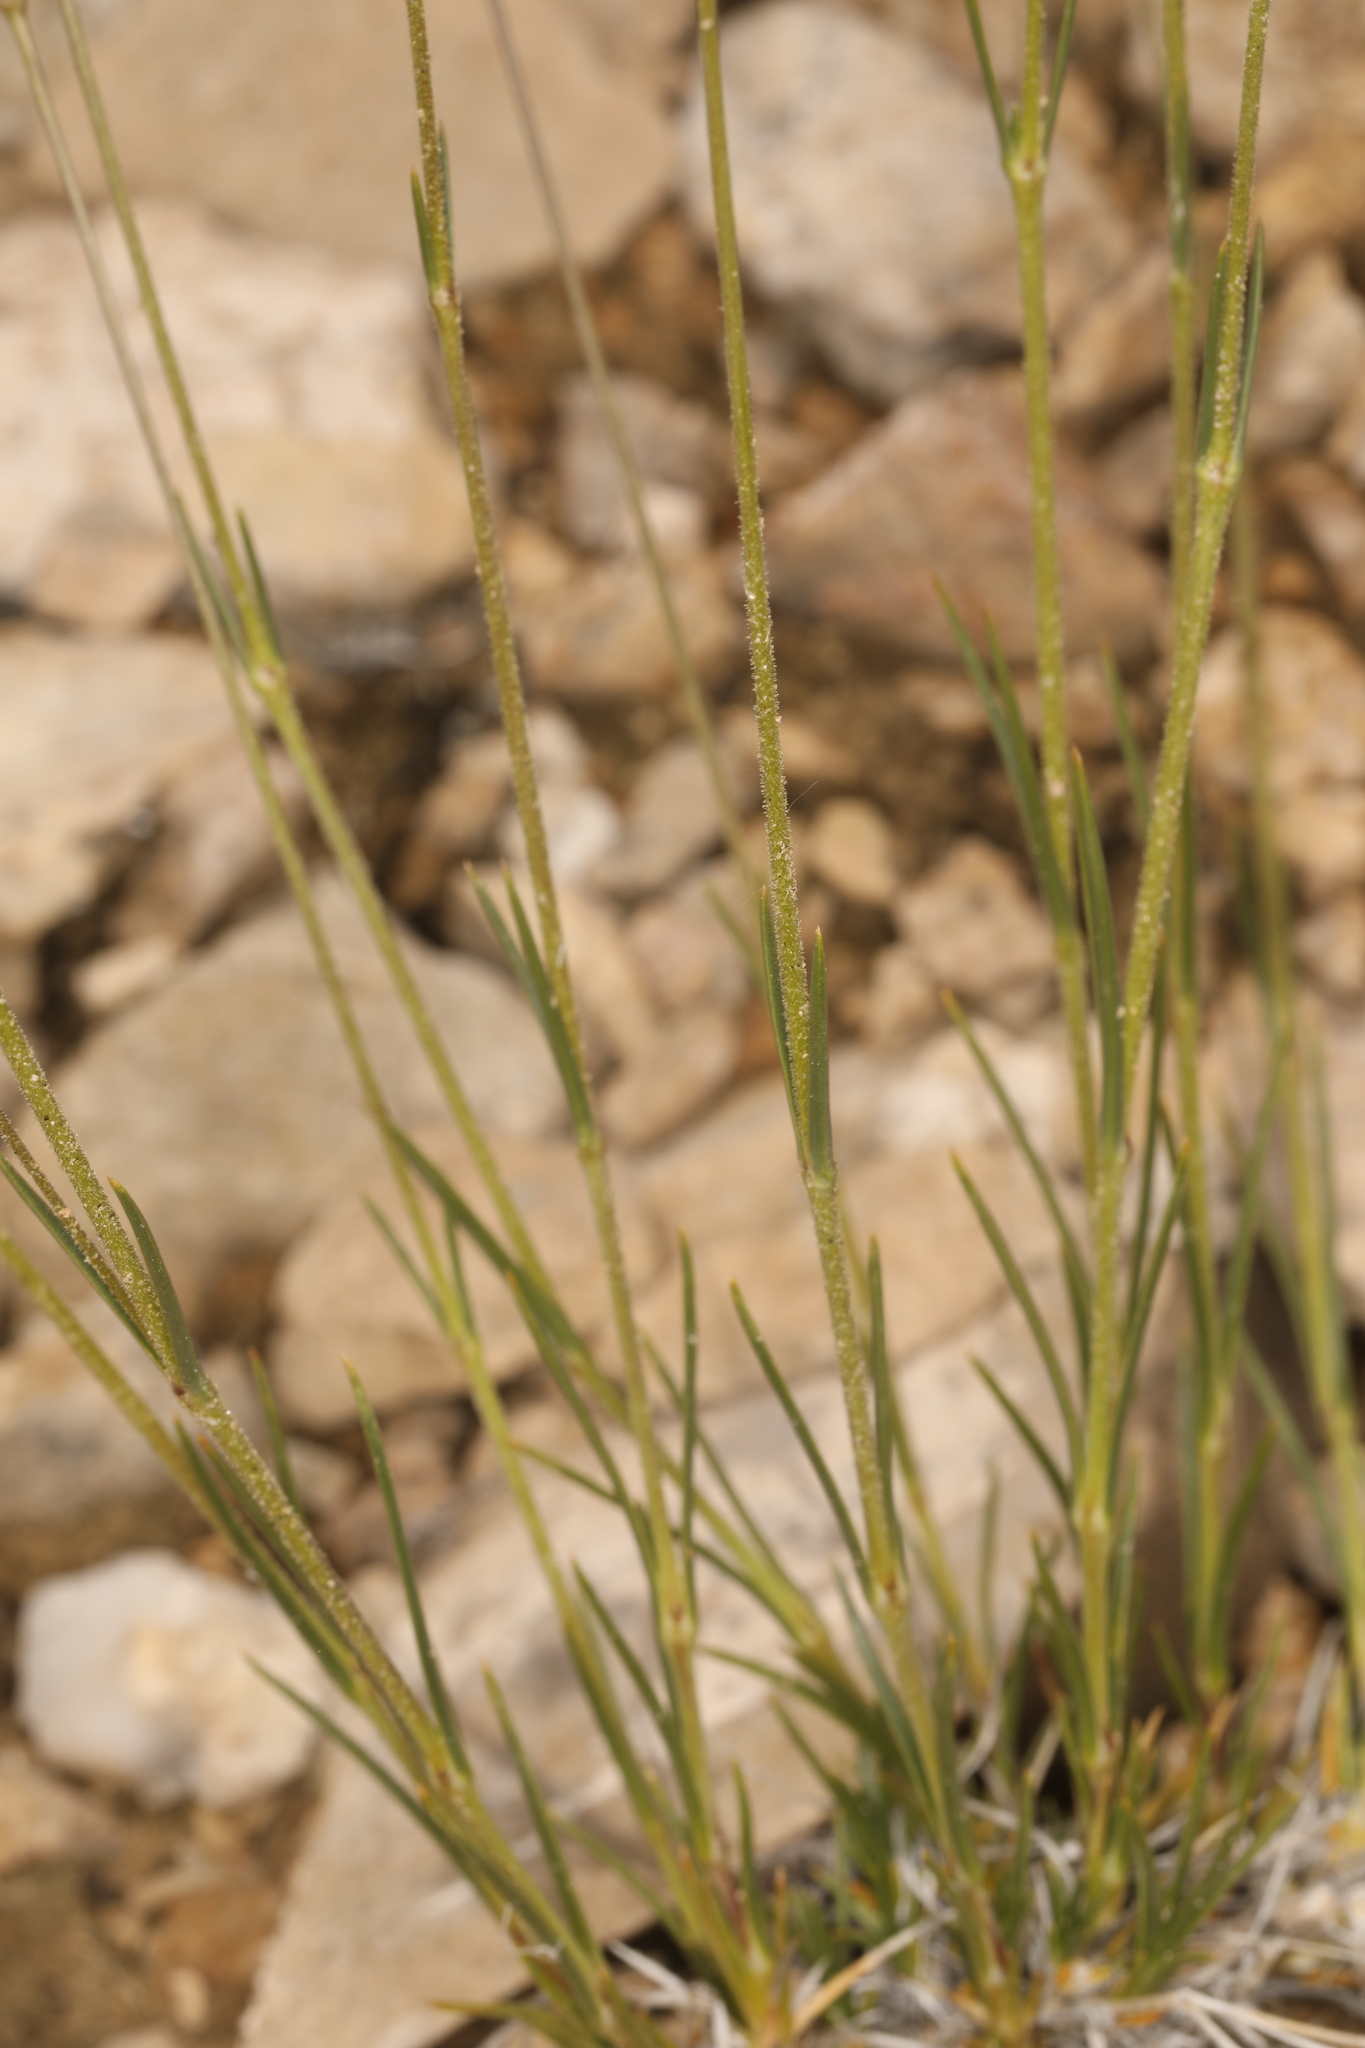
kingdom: Plantae
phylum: Tracheophyta
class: Magnoliopsida
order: Caryophyllales
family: Caryophyllaceae
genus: Eremogone
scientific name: Eremogone macradenia
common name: Mohave sandwort
